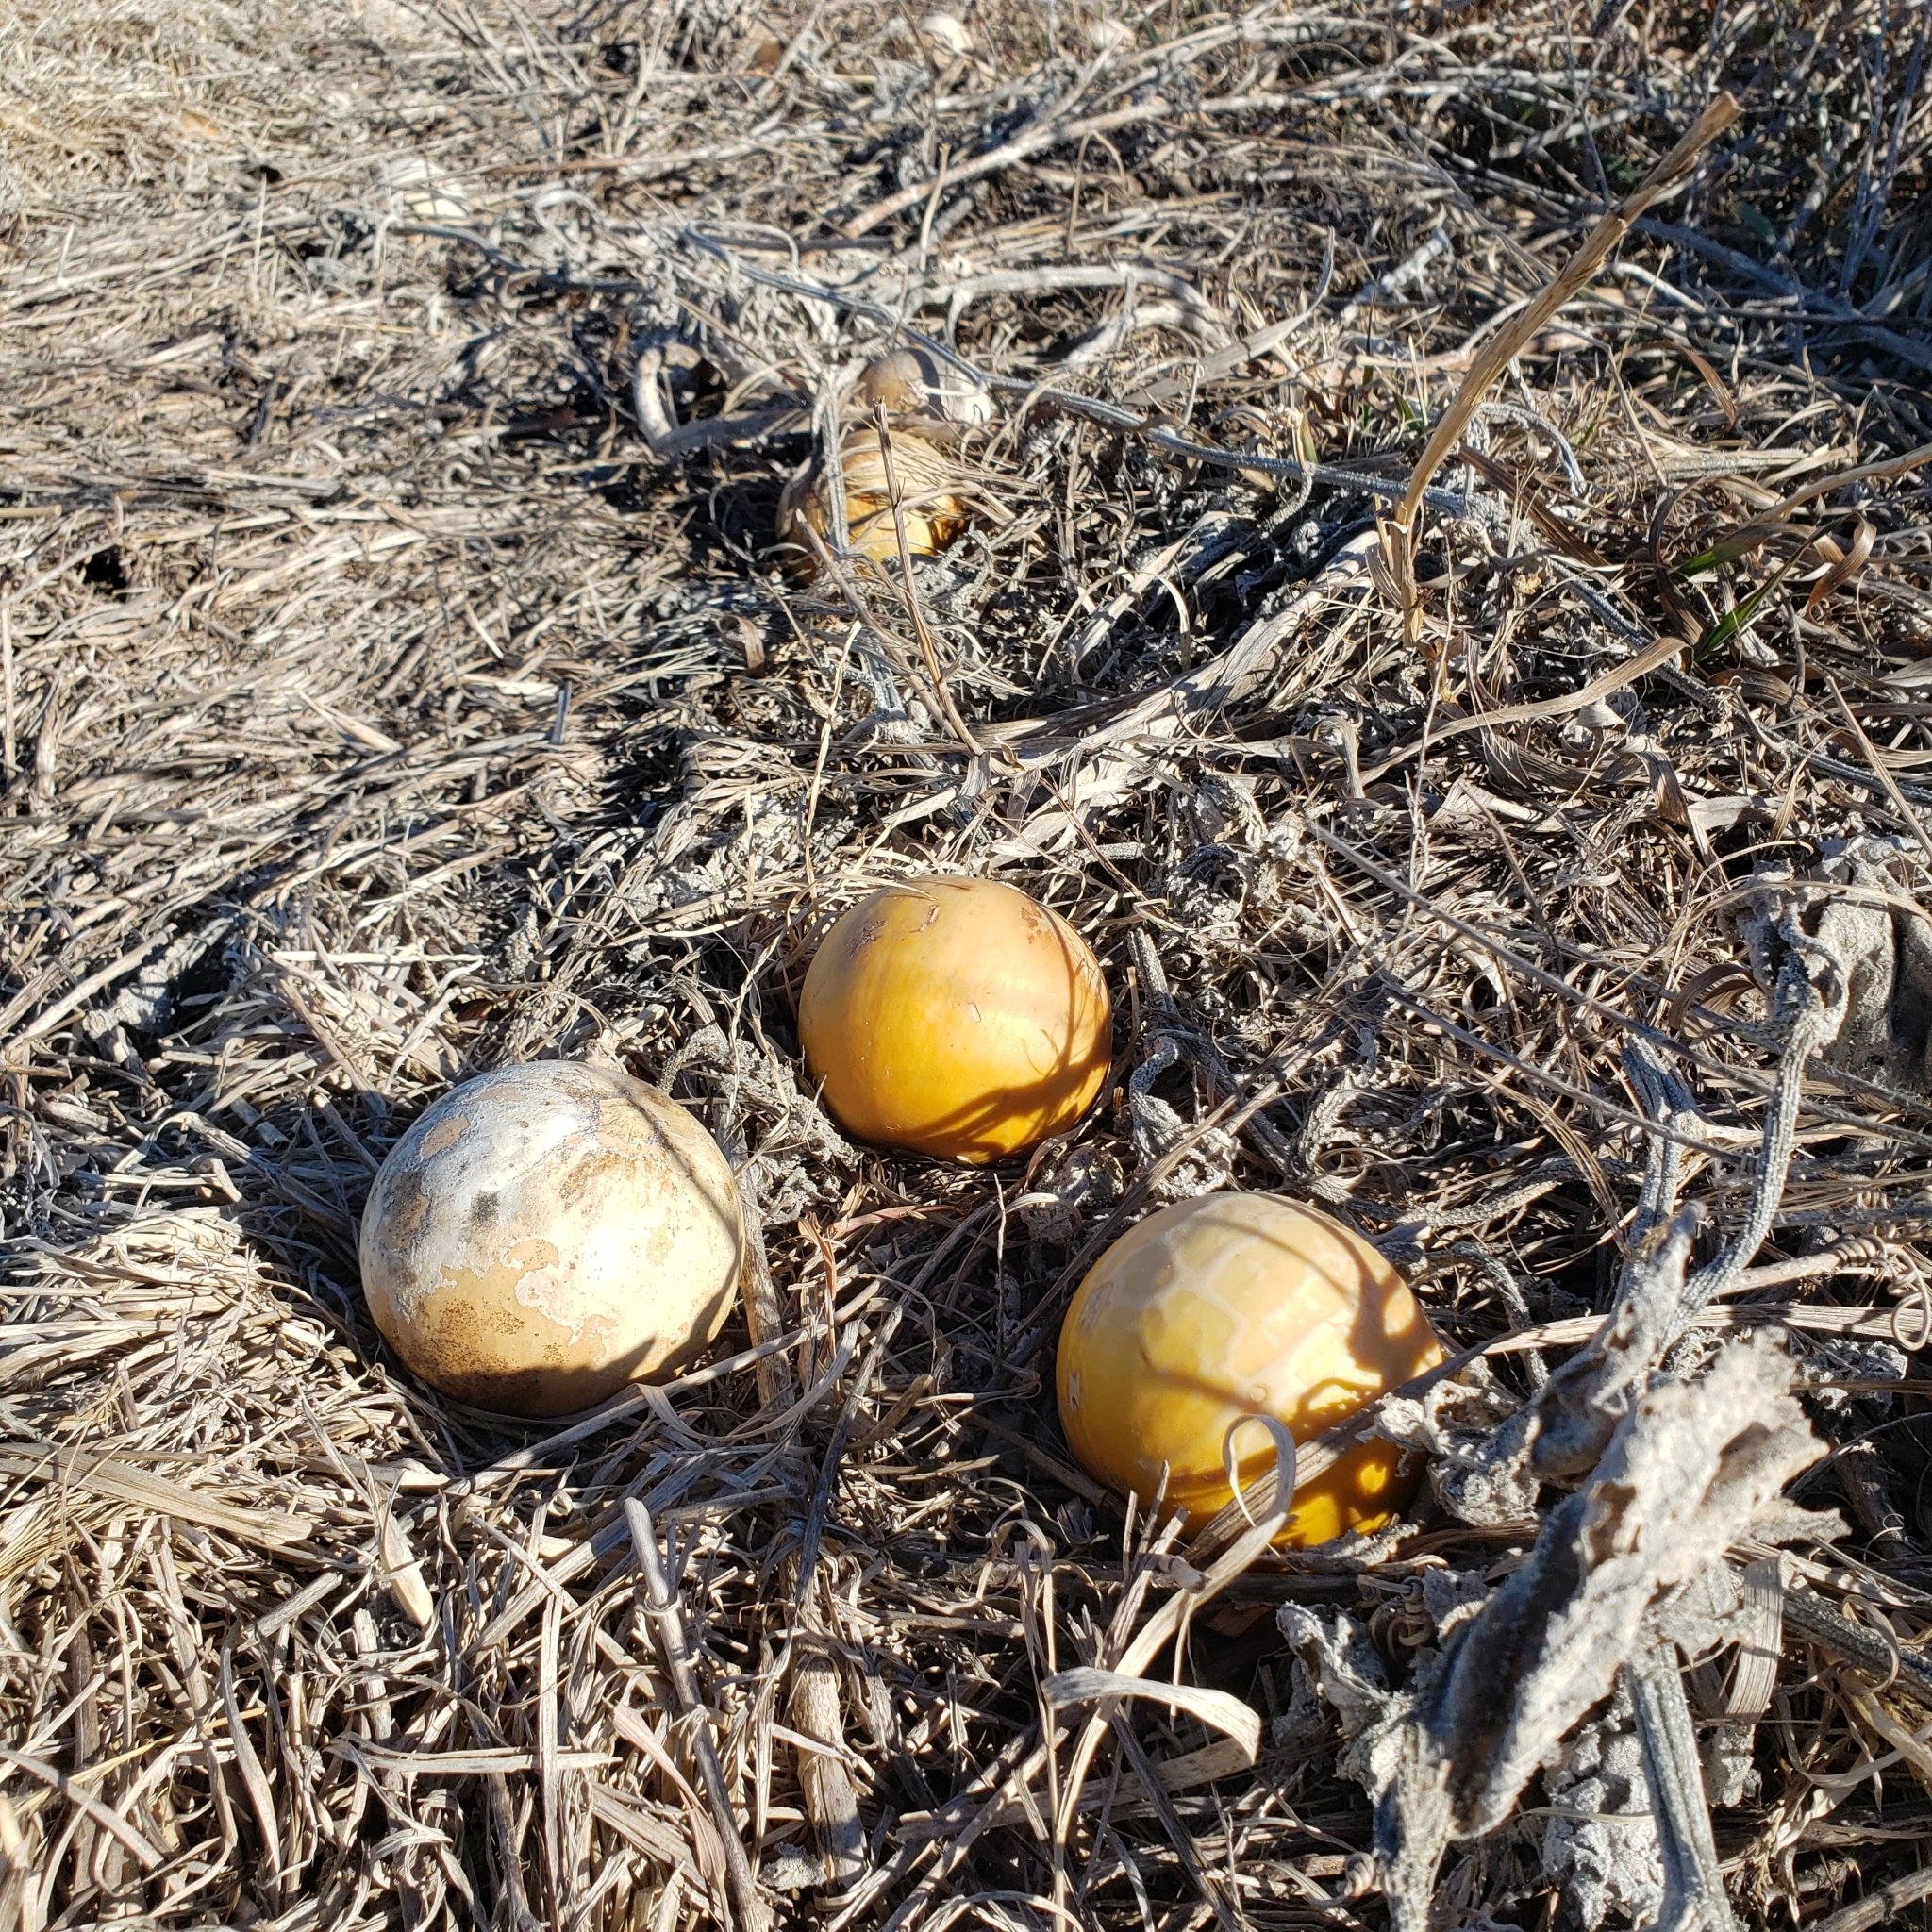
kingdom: Plantae
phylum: Tracheophyta
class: Magnoliopsida
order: Cucurbitales
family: Cucurbitaceae
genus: Cucurbita
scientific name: Cucurbita foetidissima
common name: Buffalo gourd
